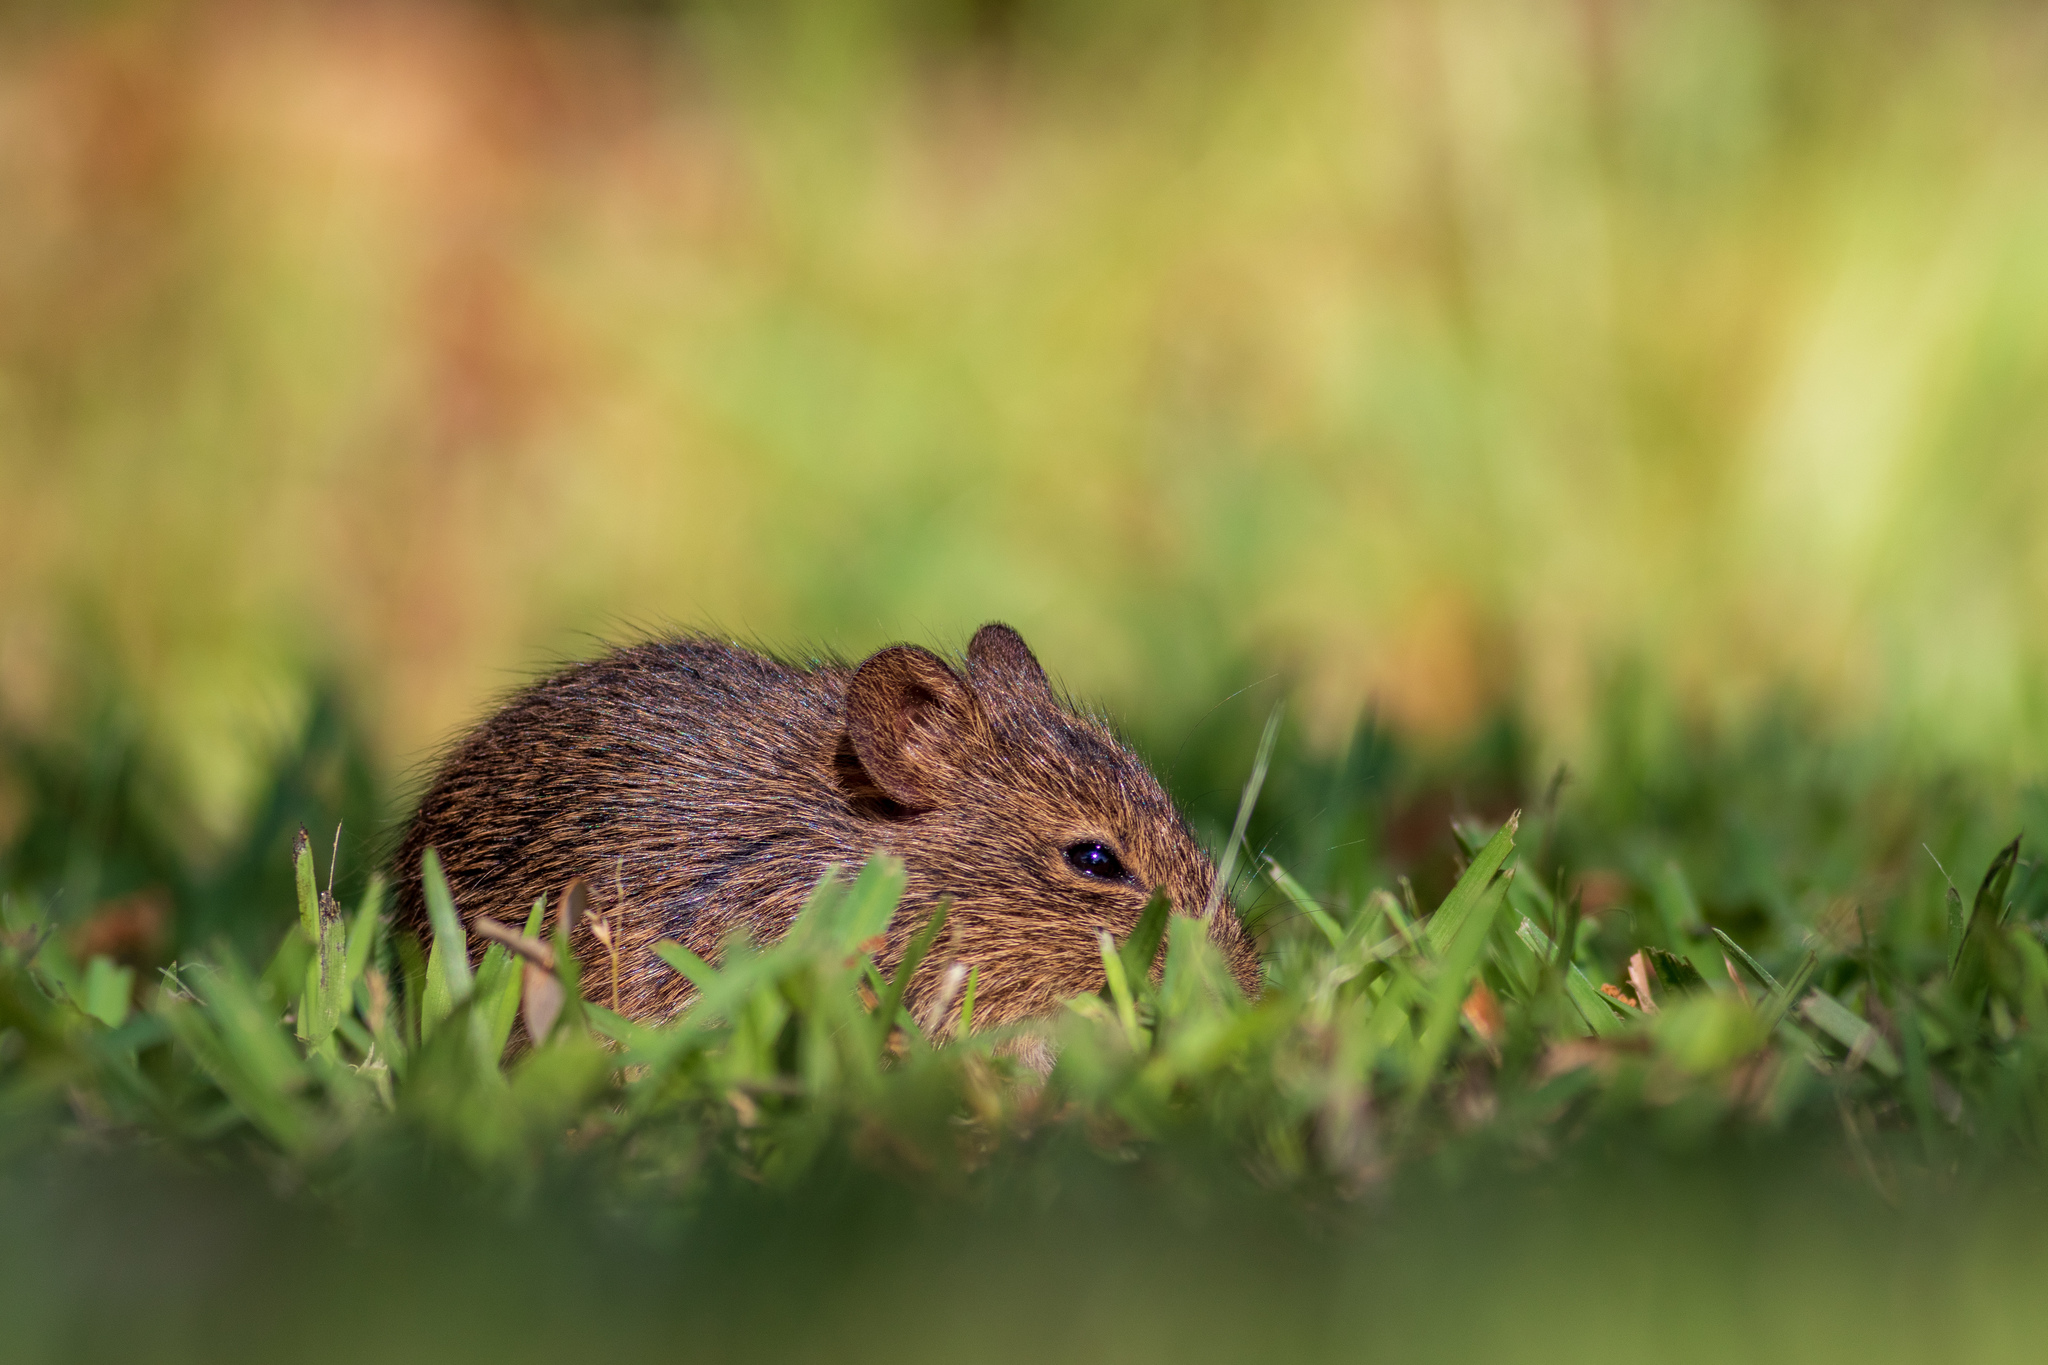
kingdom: Animalia
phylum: Chordata
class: Mammalia
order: Rodentia
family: Cricetidae
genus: Sigmodon
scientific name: Sigmodon hispidus
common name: Hispid cotton rat
